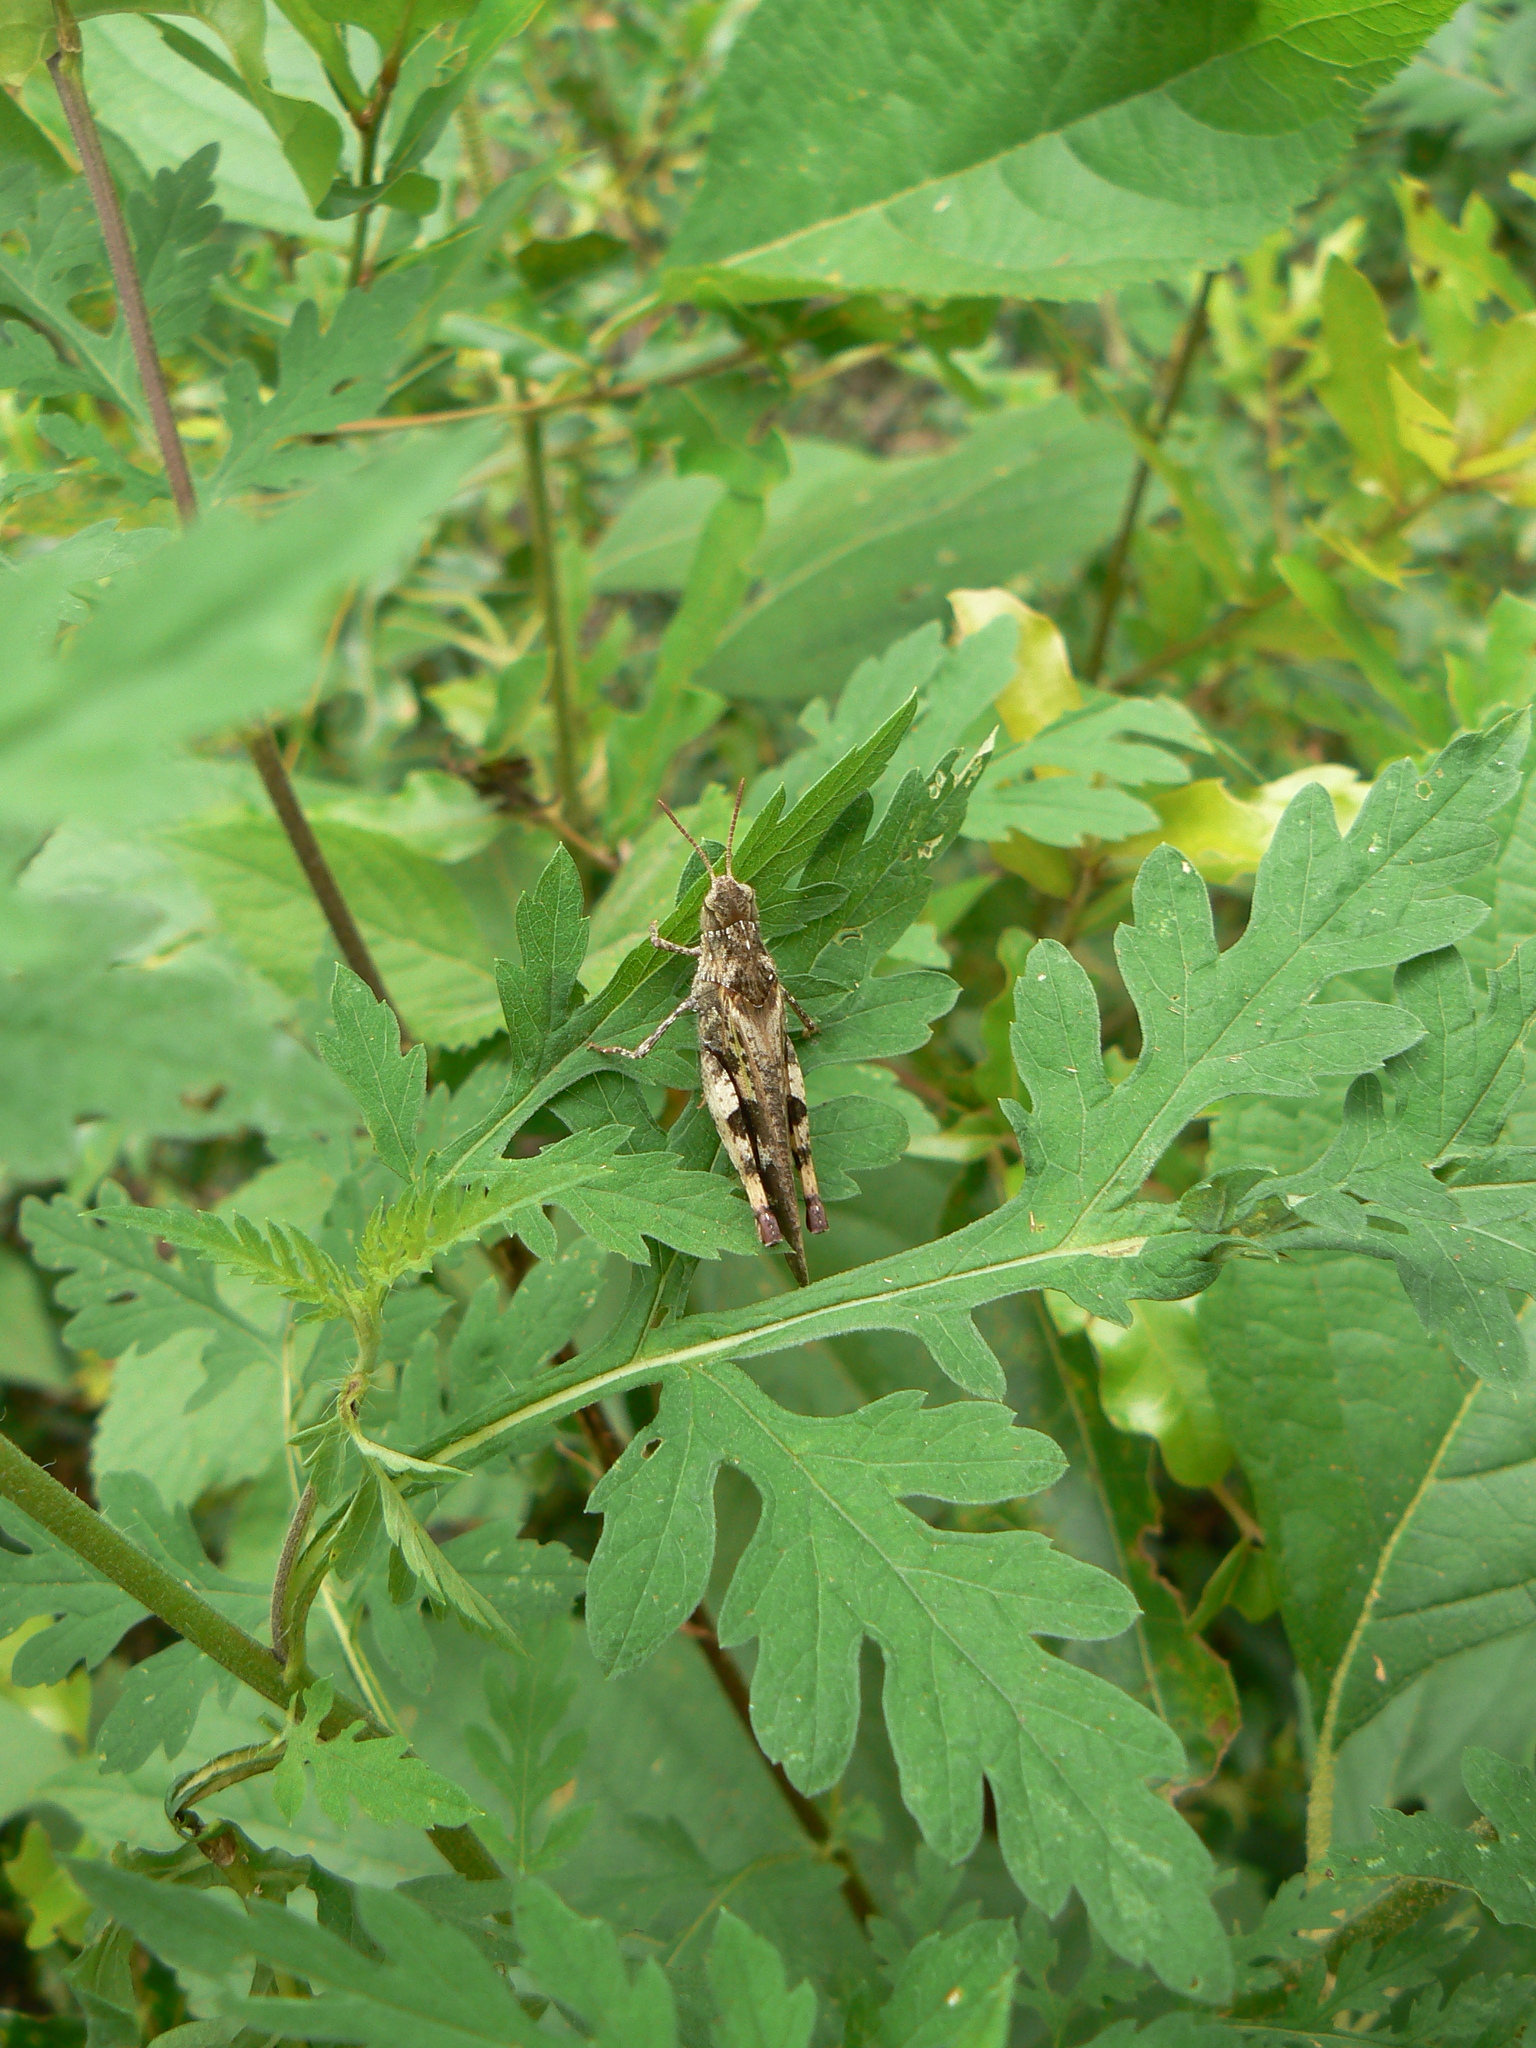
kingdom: Animalia
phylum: Arthropoda
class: Insecta
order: Orthoptera
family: Acrididae
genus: Chortophaga
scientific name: Chortophaga australior
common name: Southern green-striped grasshopper
